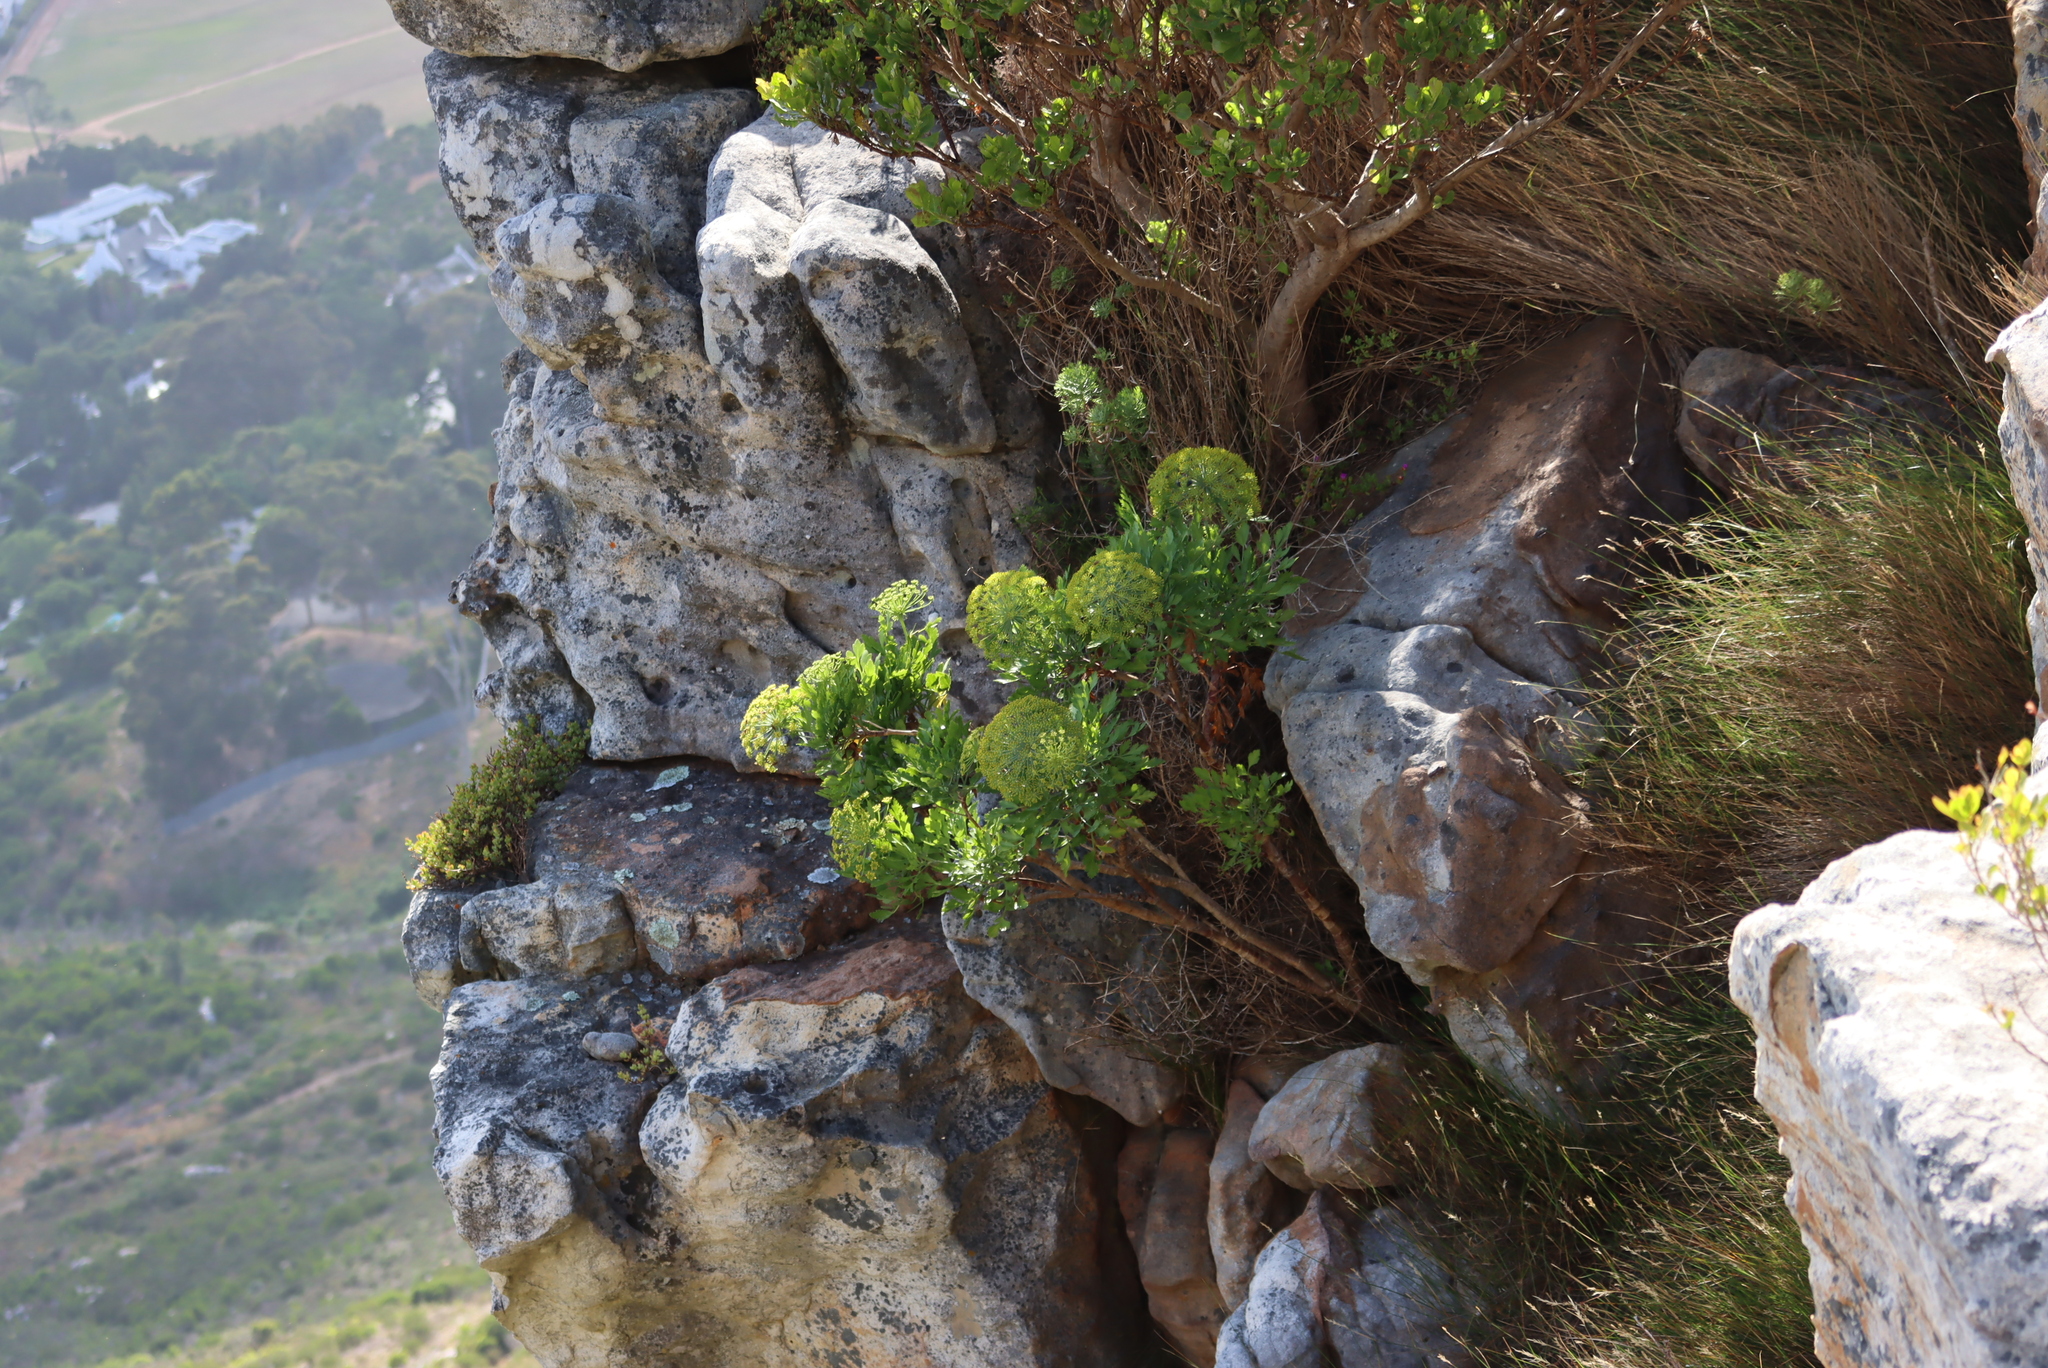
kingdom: Plantae
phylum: Tracheophyta
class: Magnoliopsida
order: Apiales
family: Apiaceae
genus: Notobubon
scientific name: Notobubon galbanum
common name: Blisterbush
